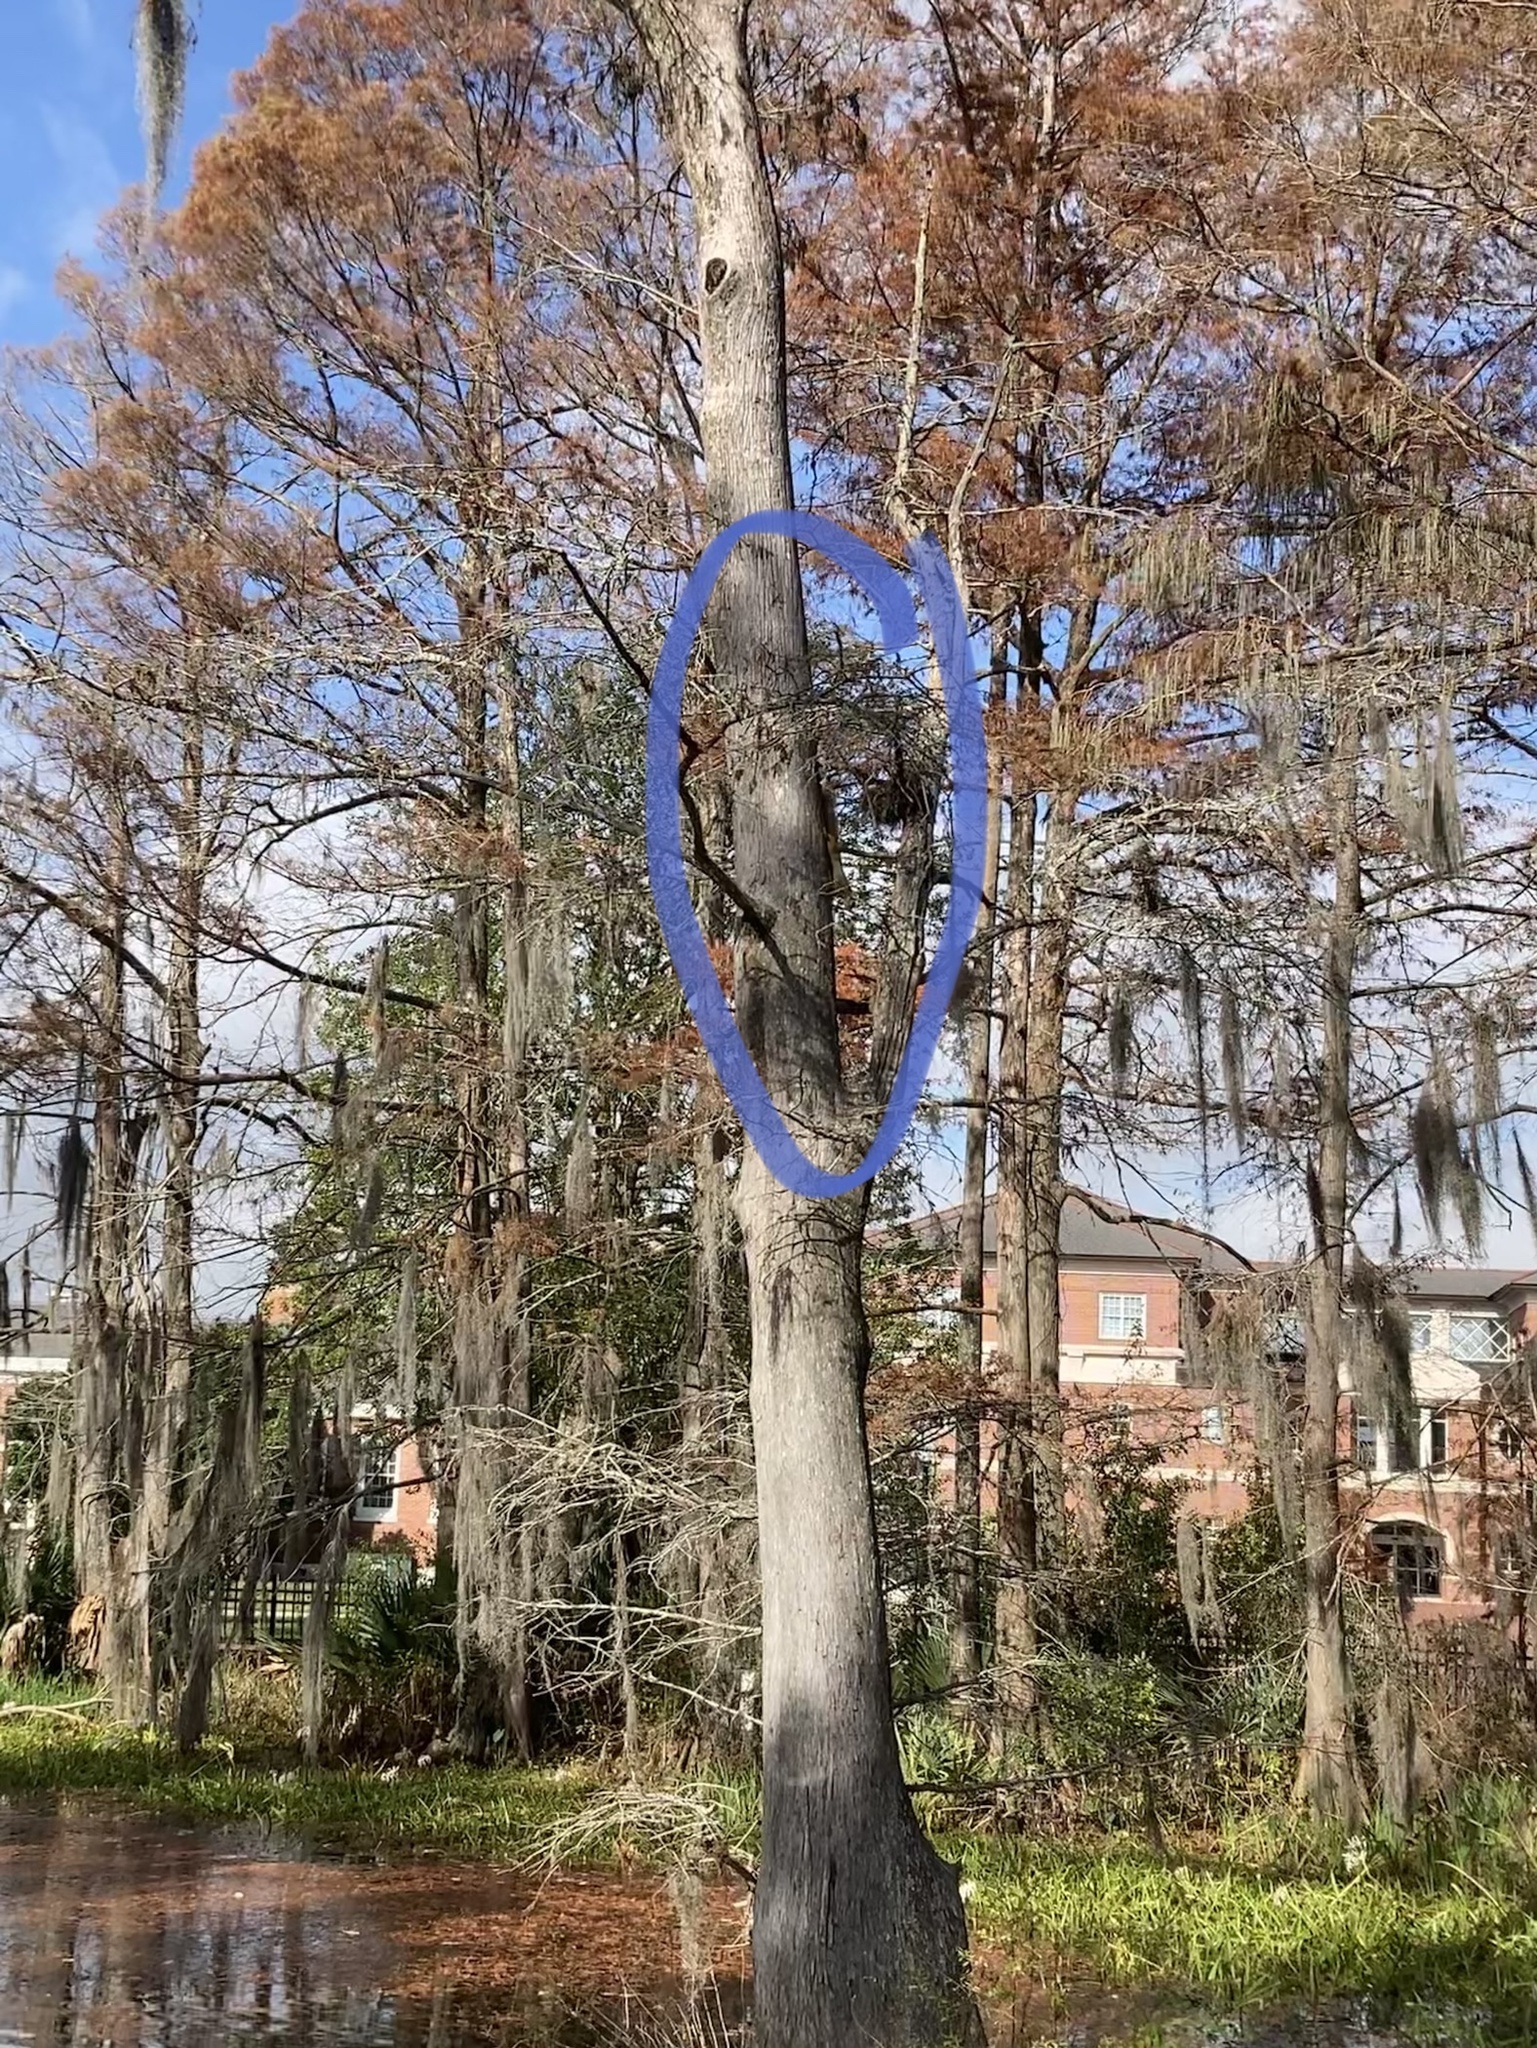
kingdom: Animalia
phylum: Chordata
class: Mammalia
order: Rodentia
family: Sciuridae
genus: Sciurus
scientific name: Sciurus niger
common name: Fox squirrel
